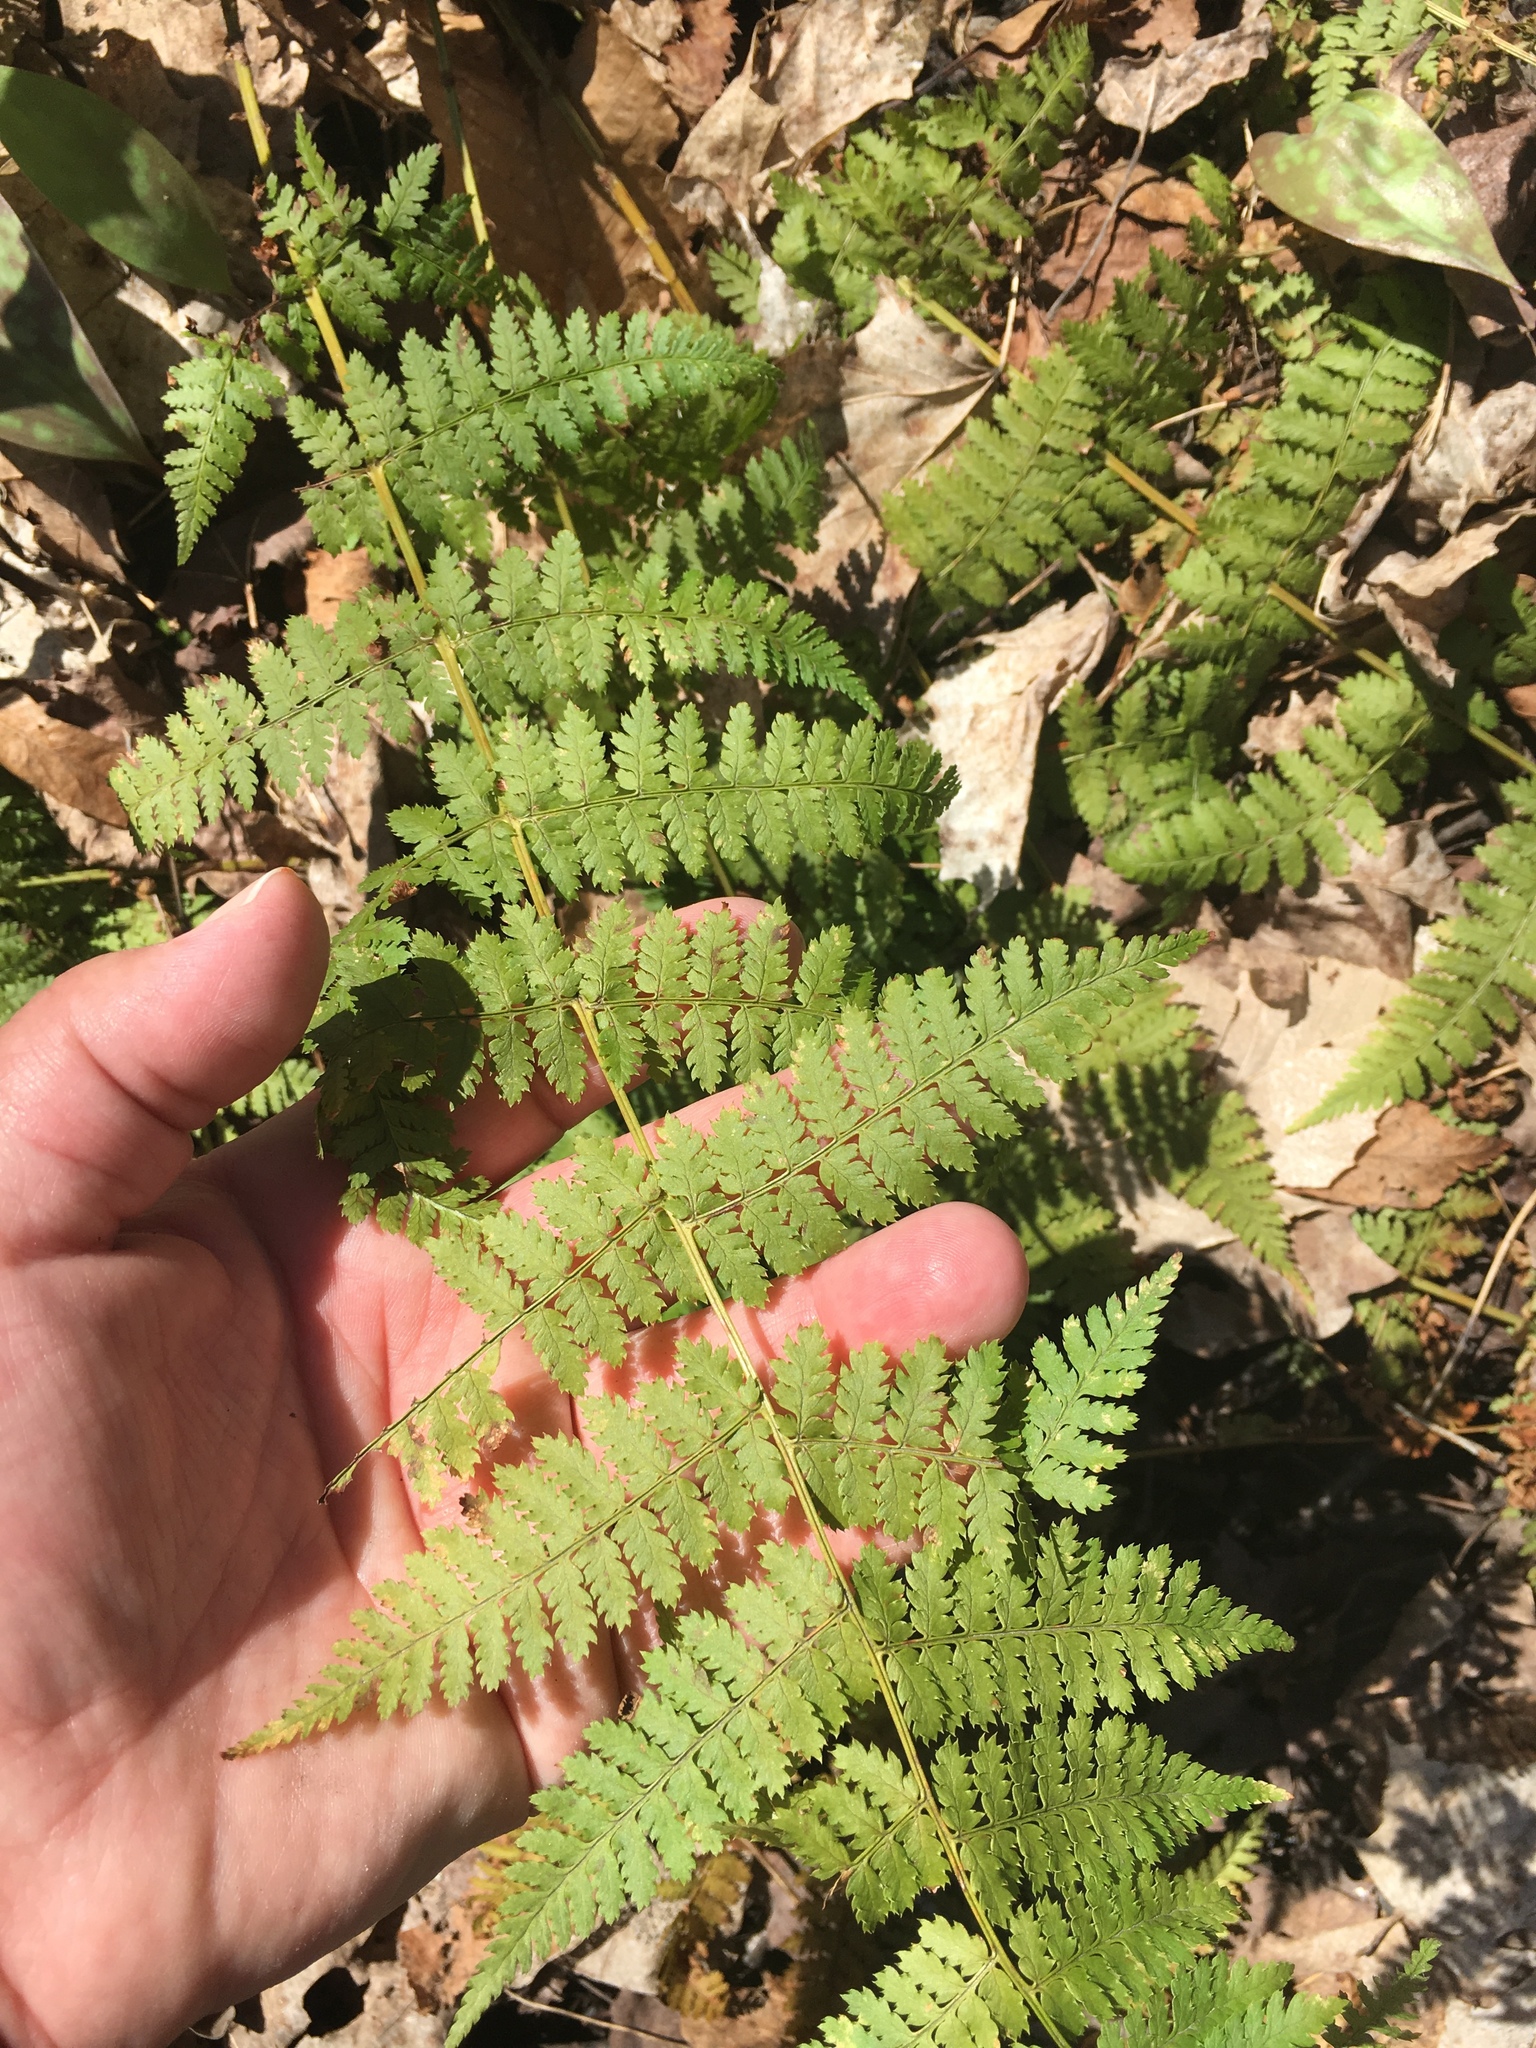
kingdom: Plantae
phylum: Tracheophyta
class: Polypodiopsida
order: Polypodiales
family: Dryopteridaceae
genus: Dryopteris
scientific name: Dryopteris intermedia
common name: Evergreen wood fern
